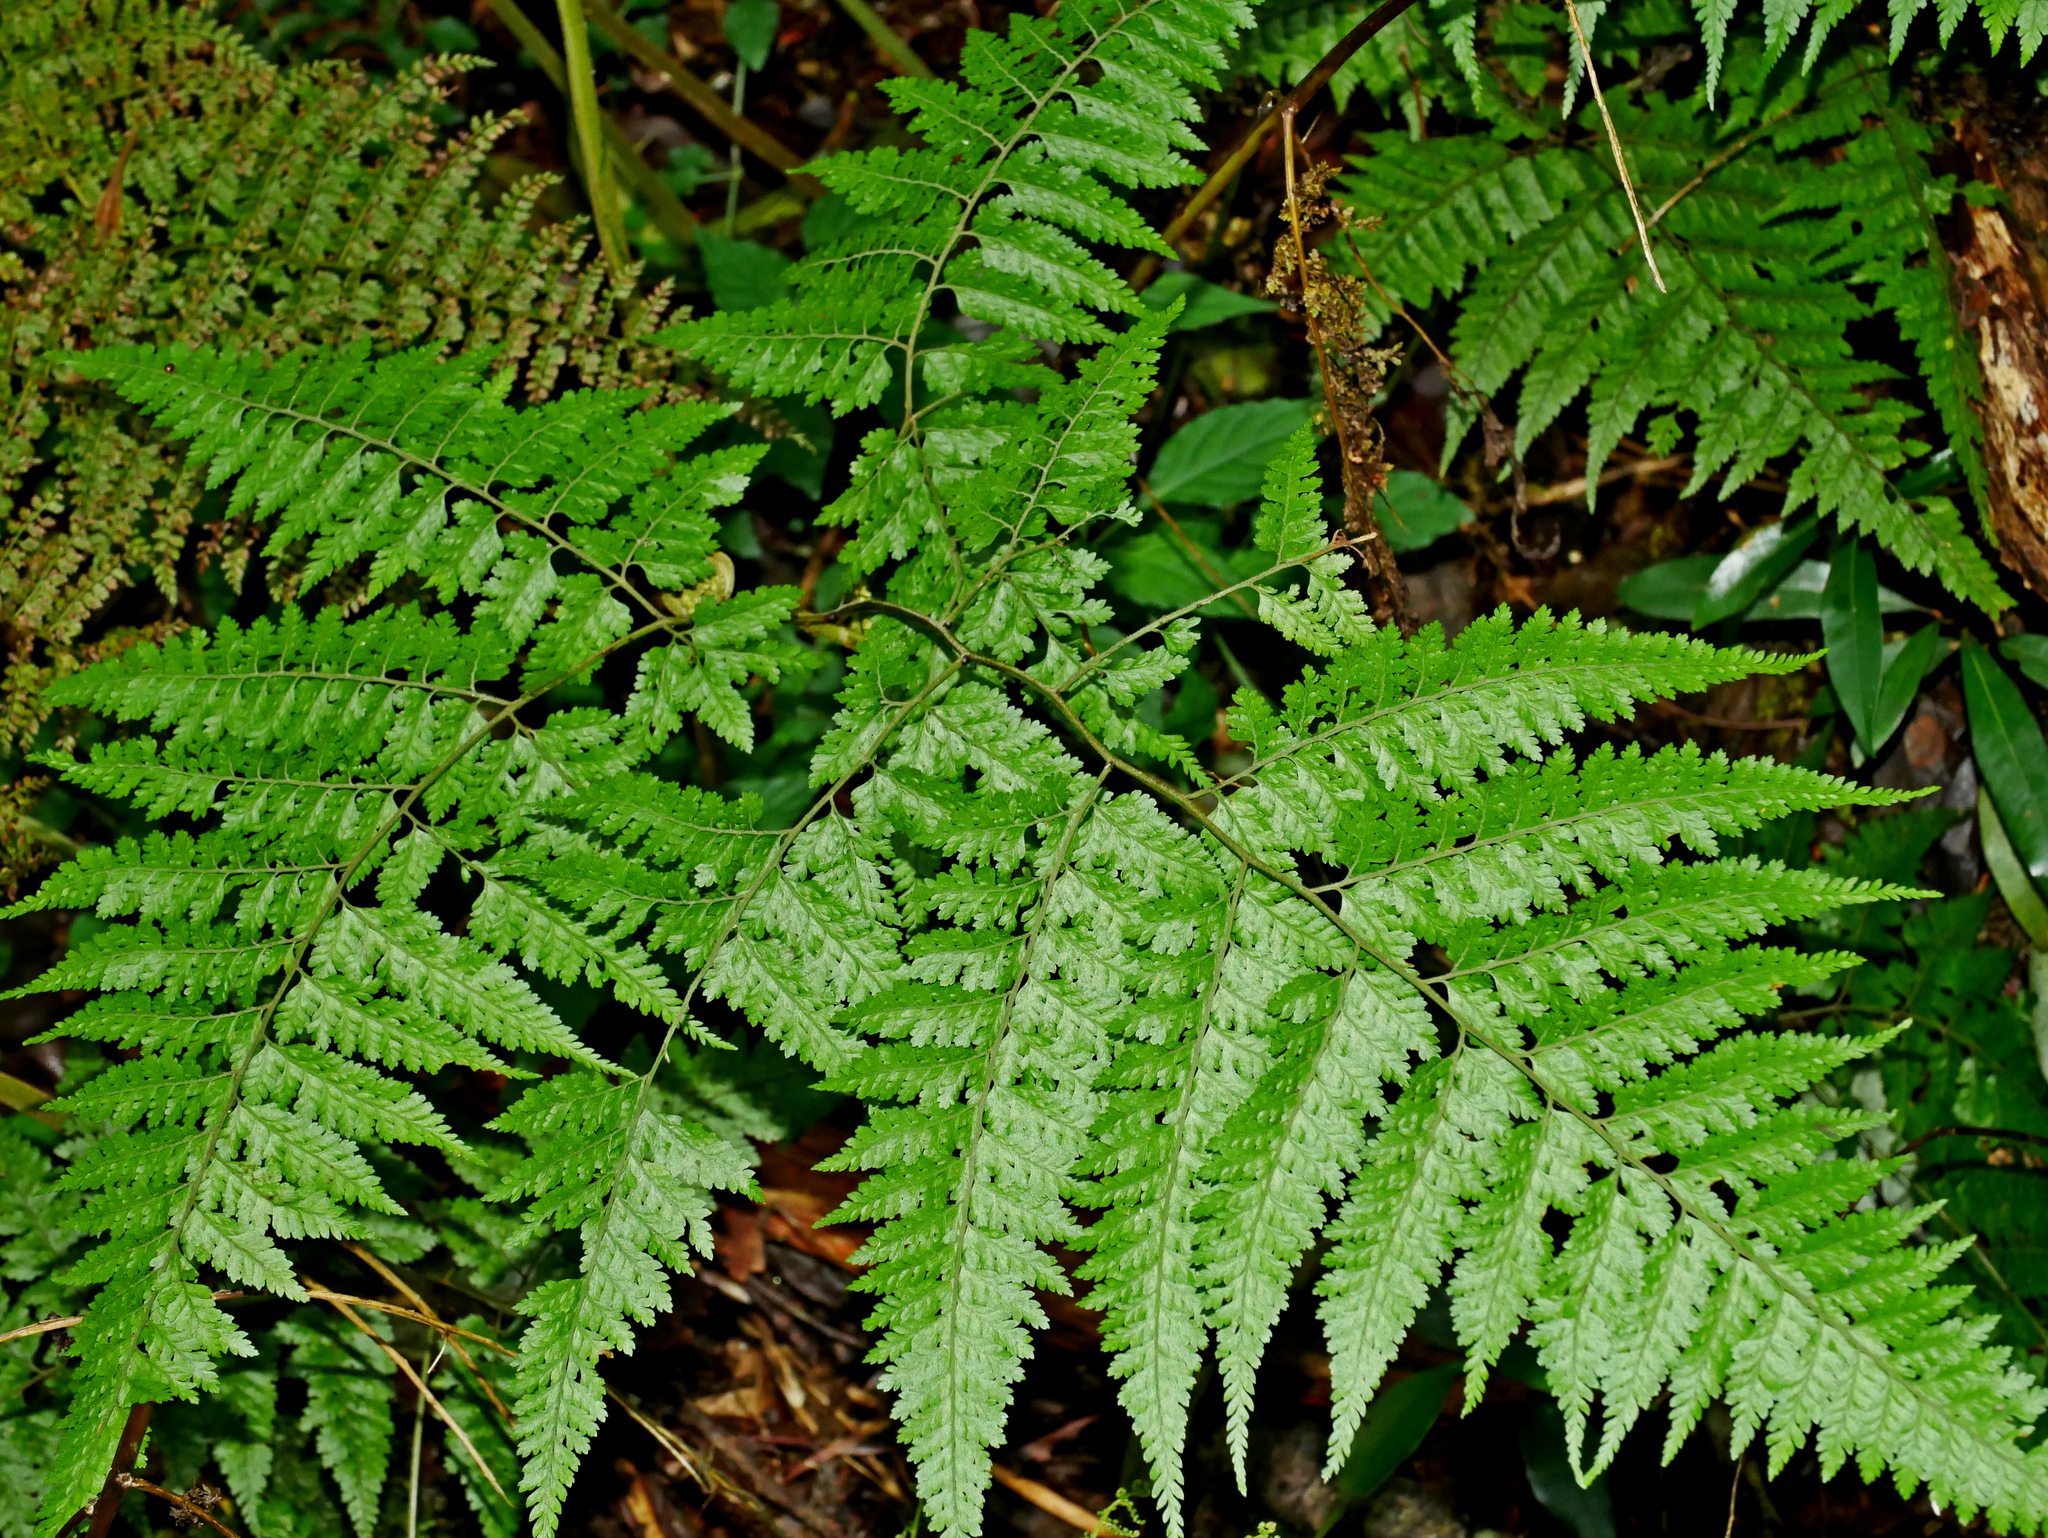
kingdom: Plantae
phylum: Tracheophyta
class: Polypodiopsida
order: Polypodiales
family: Dryopteridaceae
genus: Arachniodes
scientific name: Arachniodes quadripinnata
